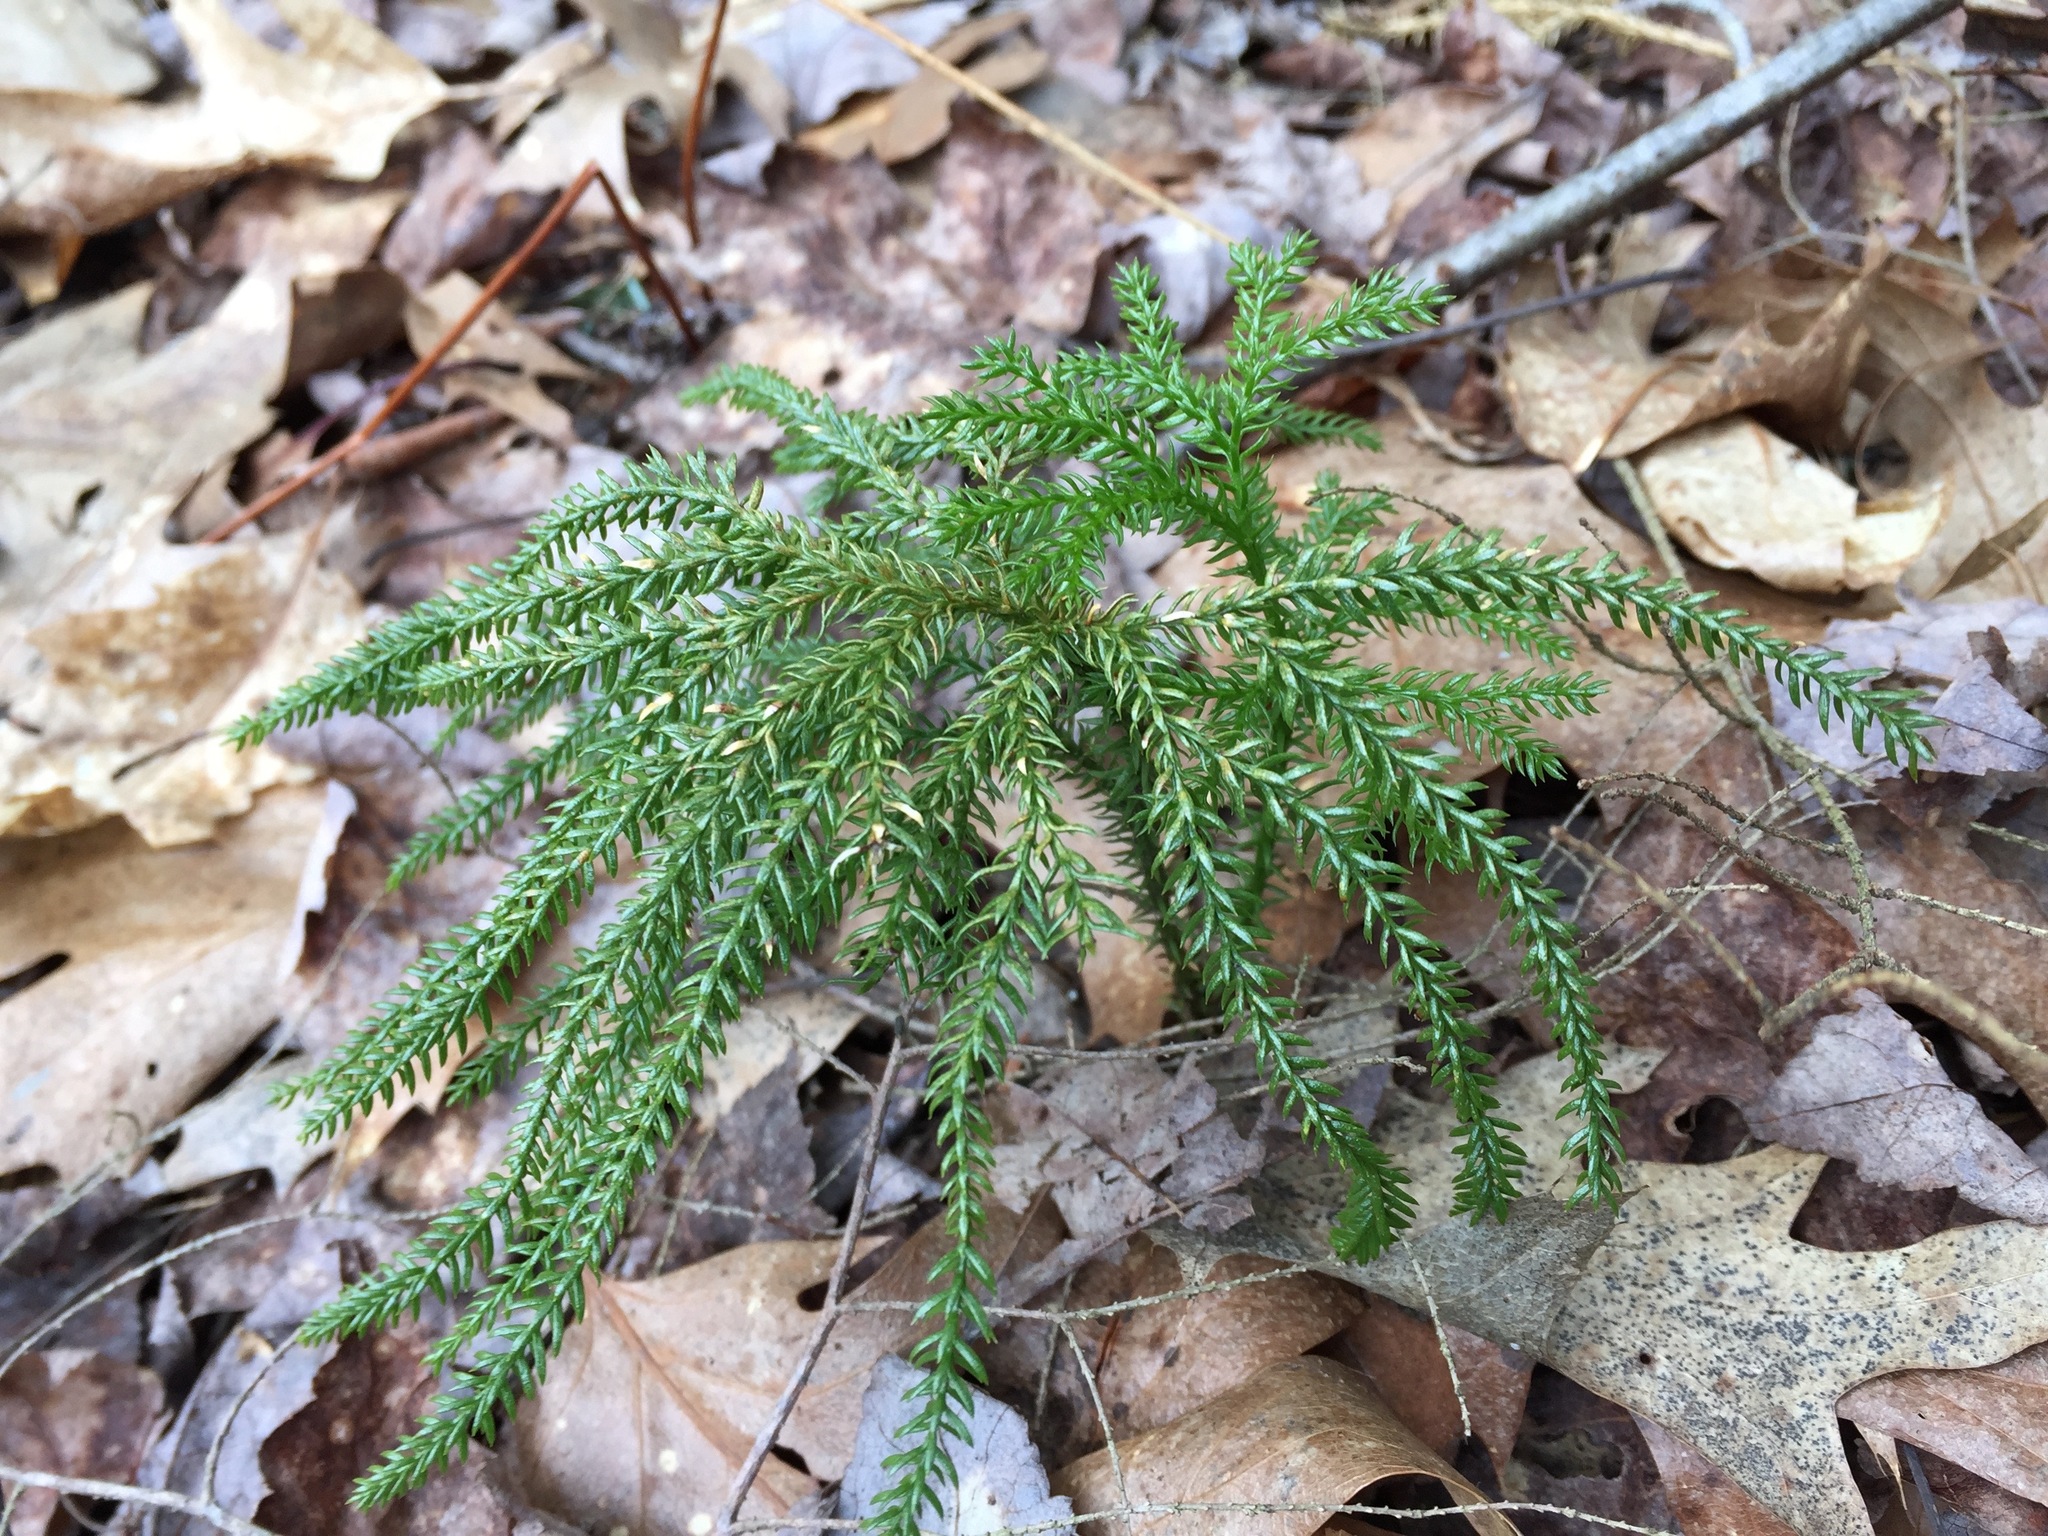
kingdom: Plantae
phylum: Tracheophyta
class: Lycopodiopsida
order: Lycopodiales
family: Lycopodiaceae
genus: Dendrolycopodium
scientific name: Dendrolycopodium dendroideum
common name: Northern tree-clubmoss
